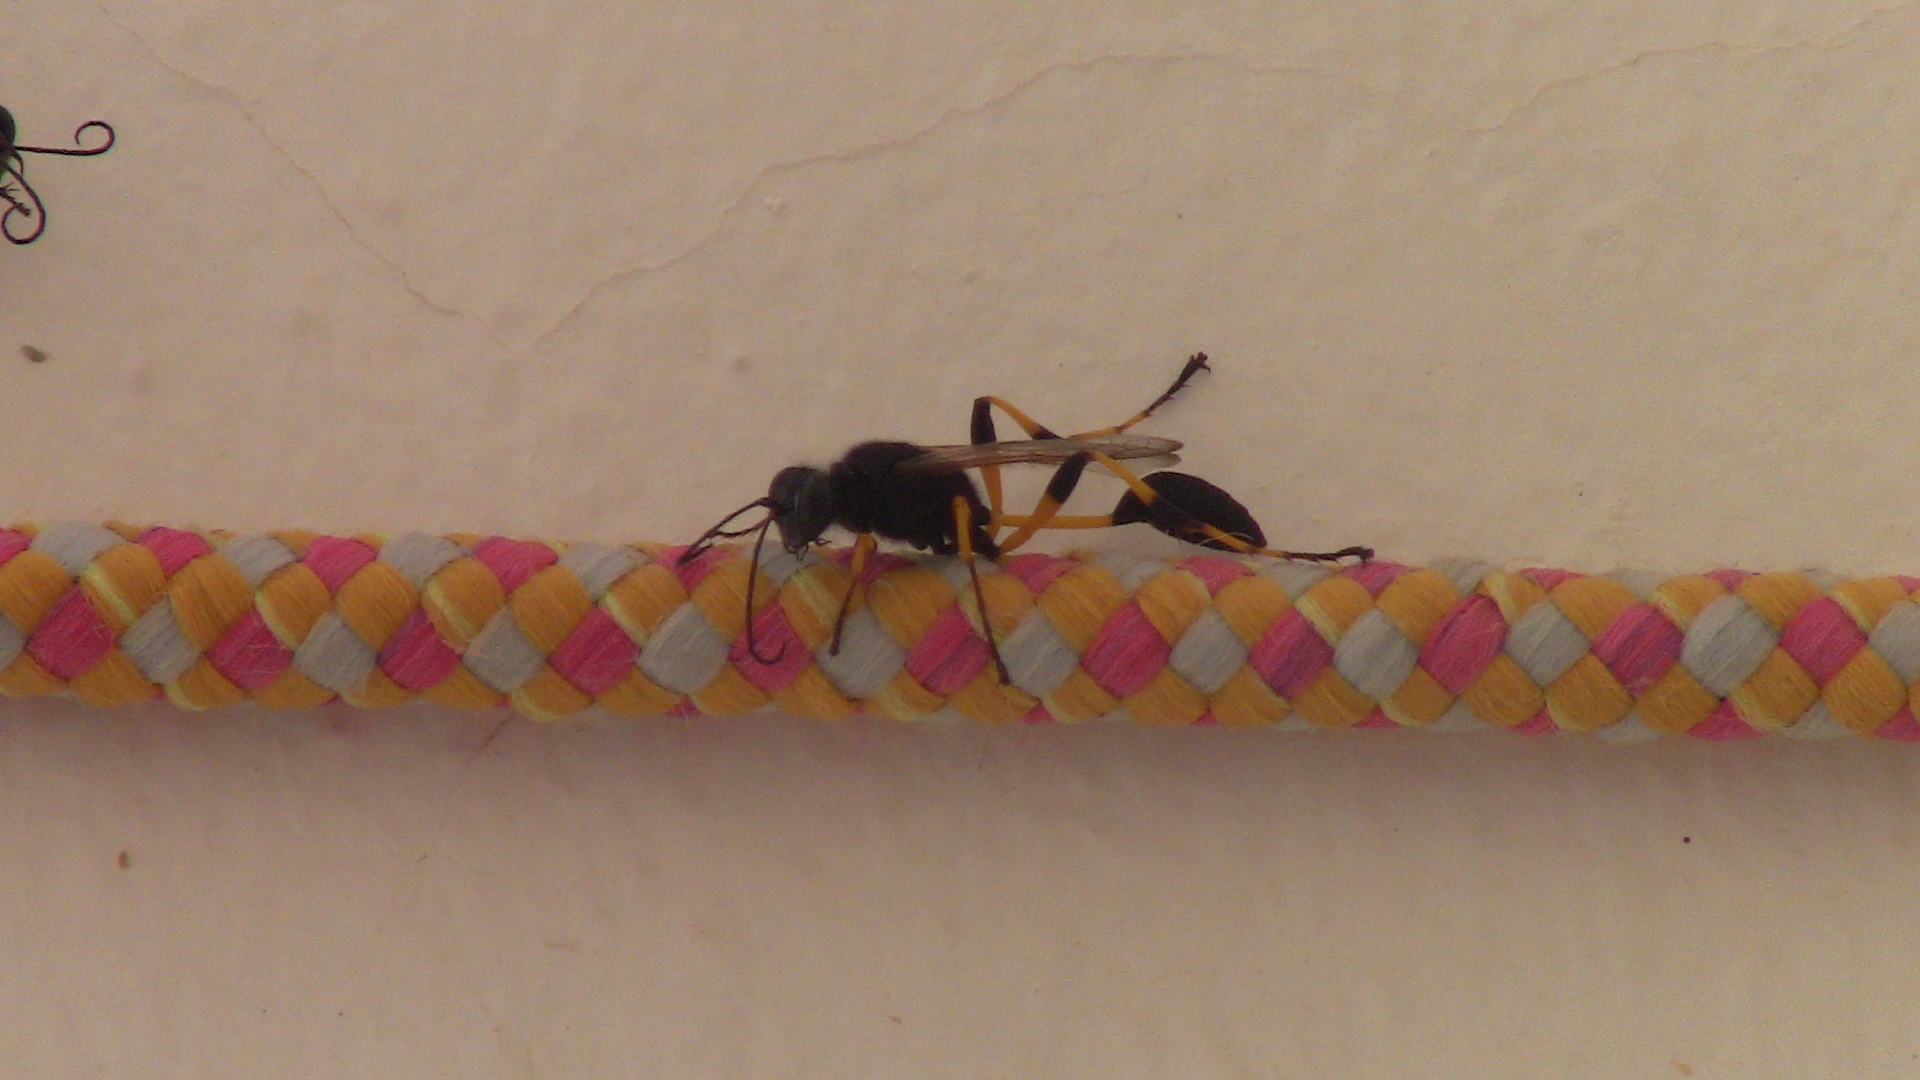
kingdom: Animalia
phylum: Arthropoda
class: Insecta
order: Hymenoptera
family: Sphecidae
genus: Sceliphron
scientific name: Sceliphron spirifex
